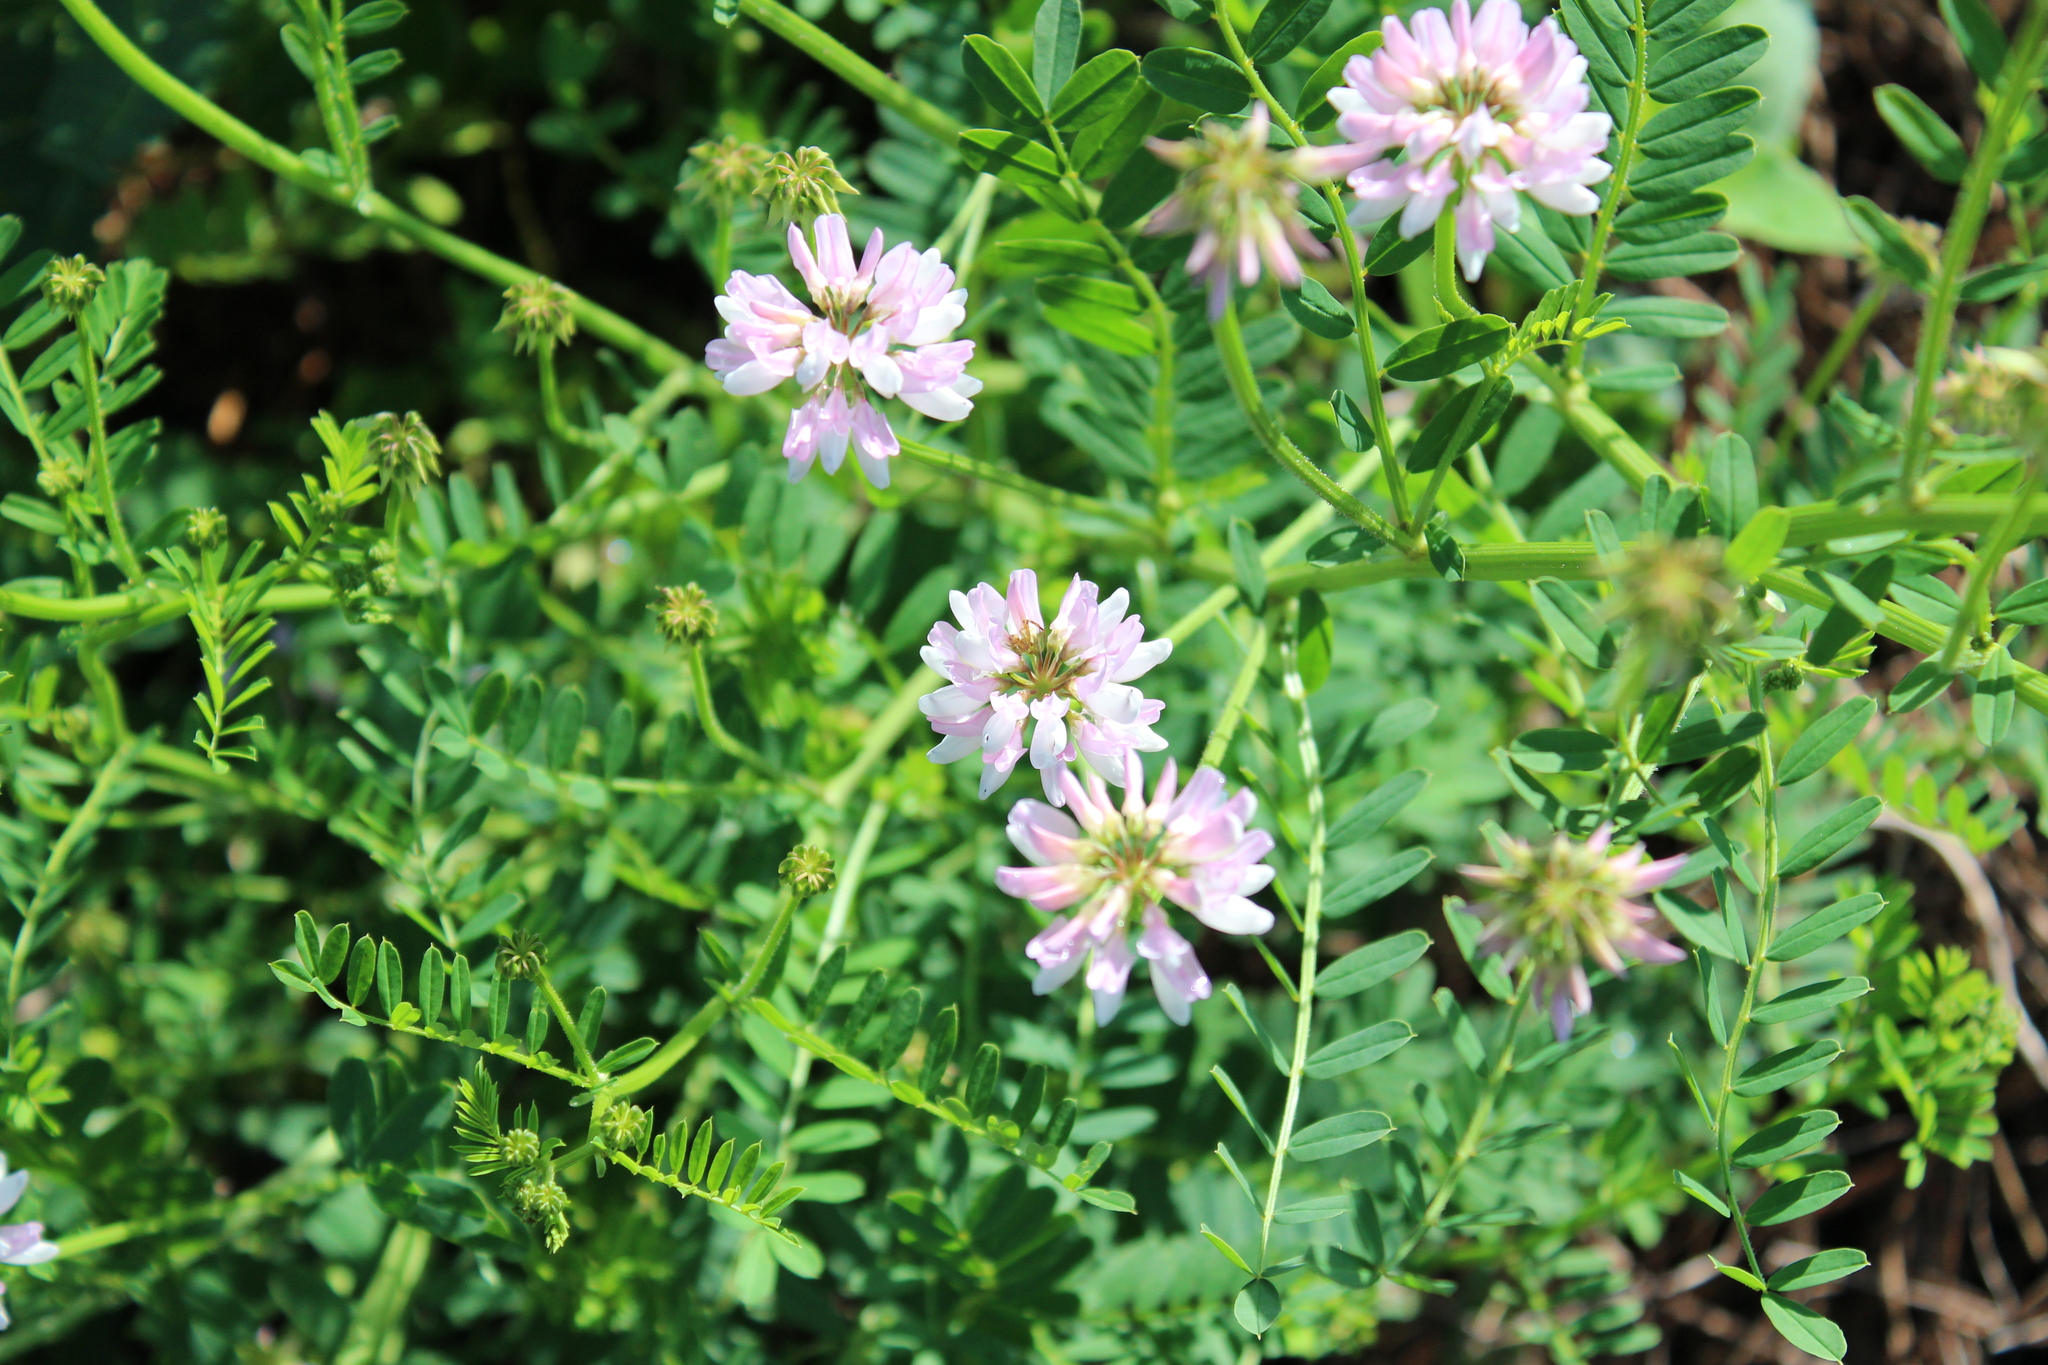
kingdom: Plantae
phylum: Tracheophyta
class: Magnoliopsida
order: Fabales
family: Fabaceae
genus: Coronilla
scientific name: Coronilla varia
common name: Crownvetch
